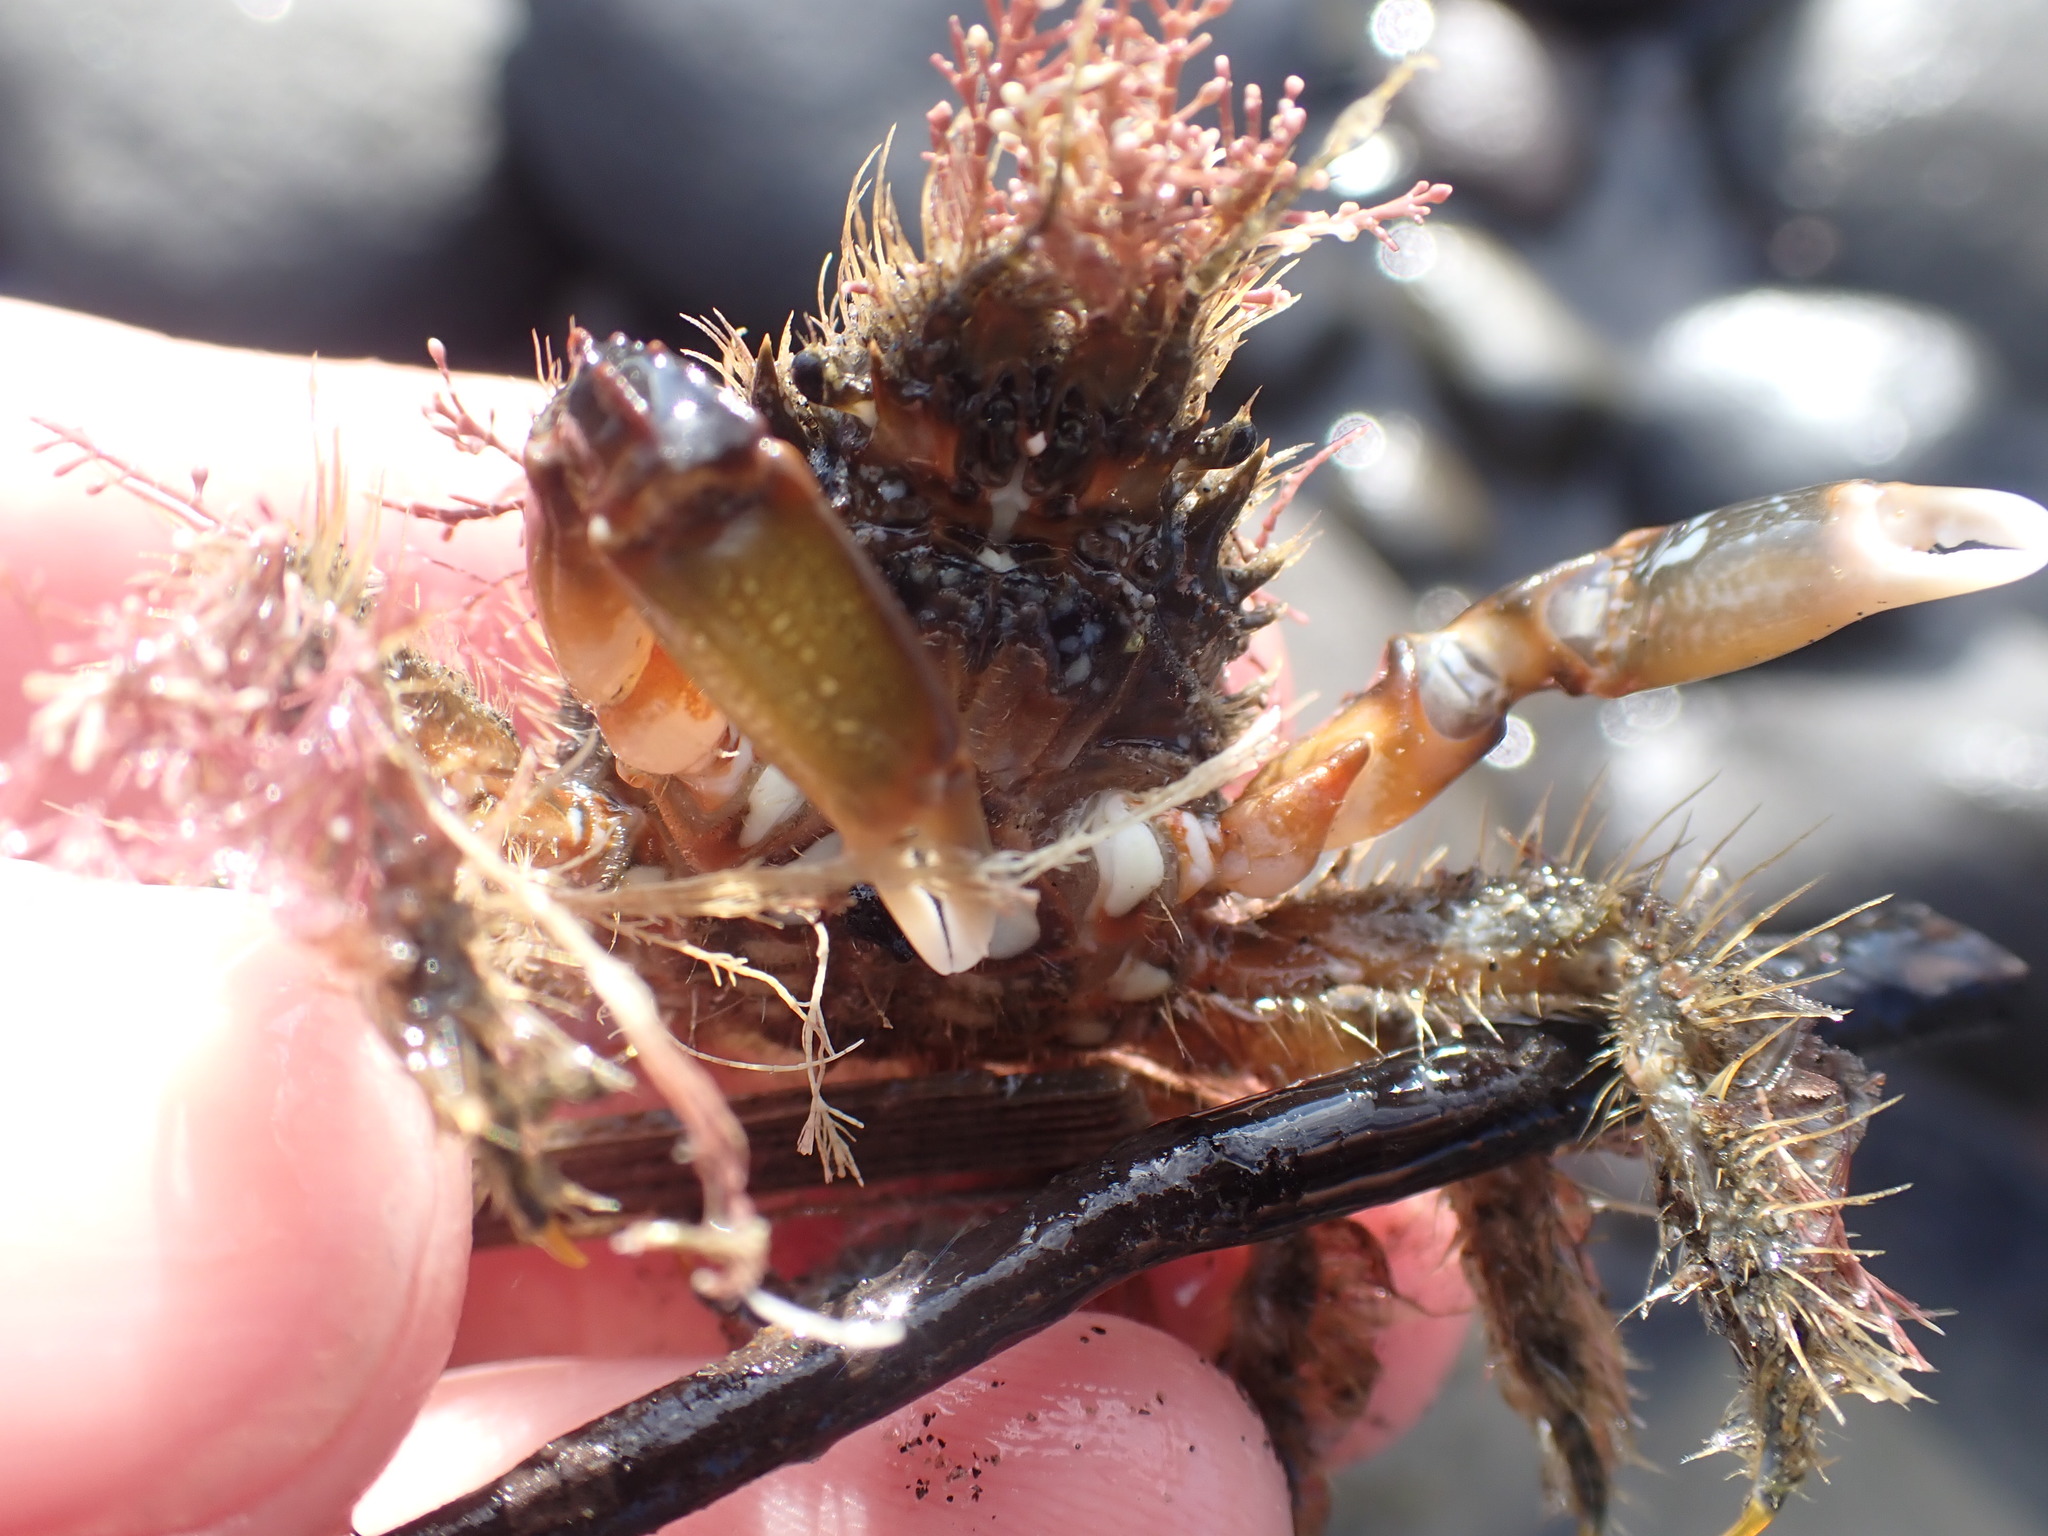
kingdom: Animalia
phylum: Arthropoda
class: Malacostraca
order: Decapoda
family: Majidae
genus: Notomithrax
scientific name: Notomithrax ursus
